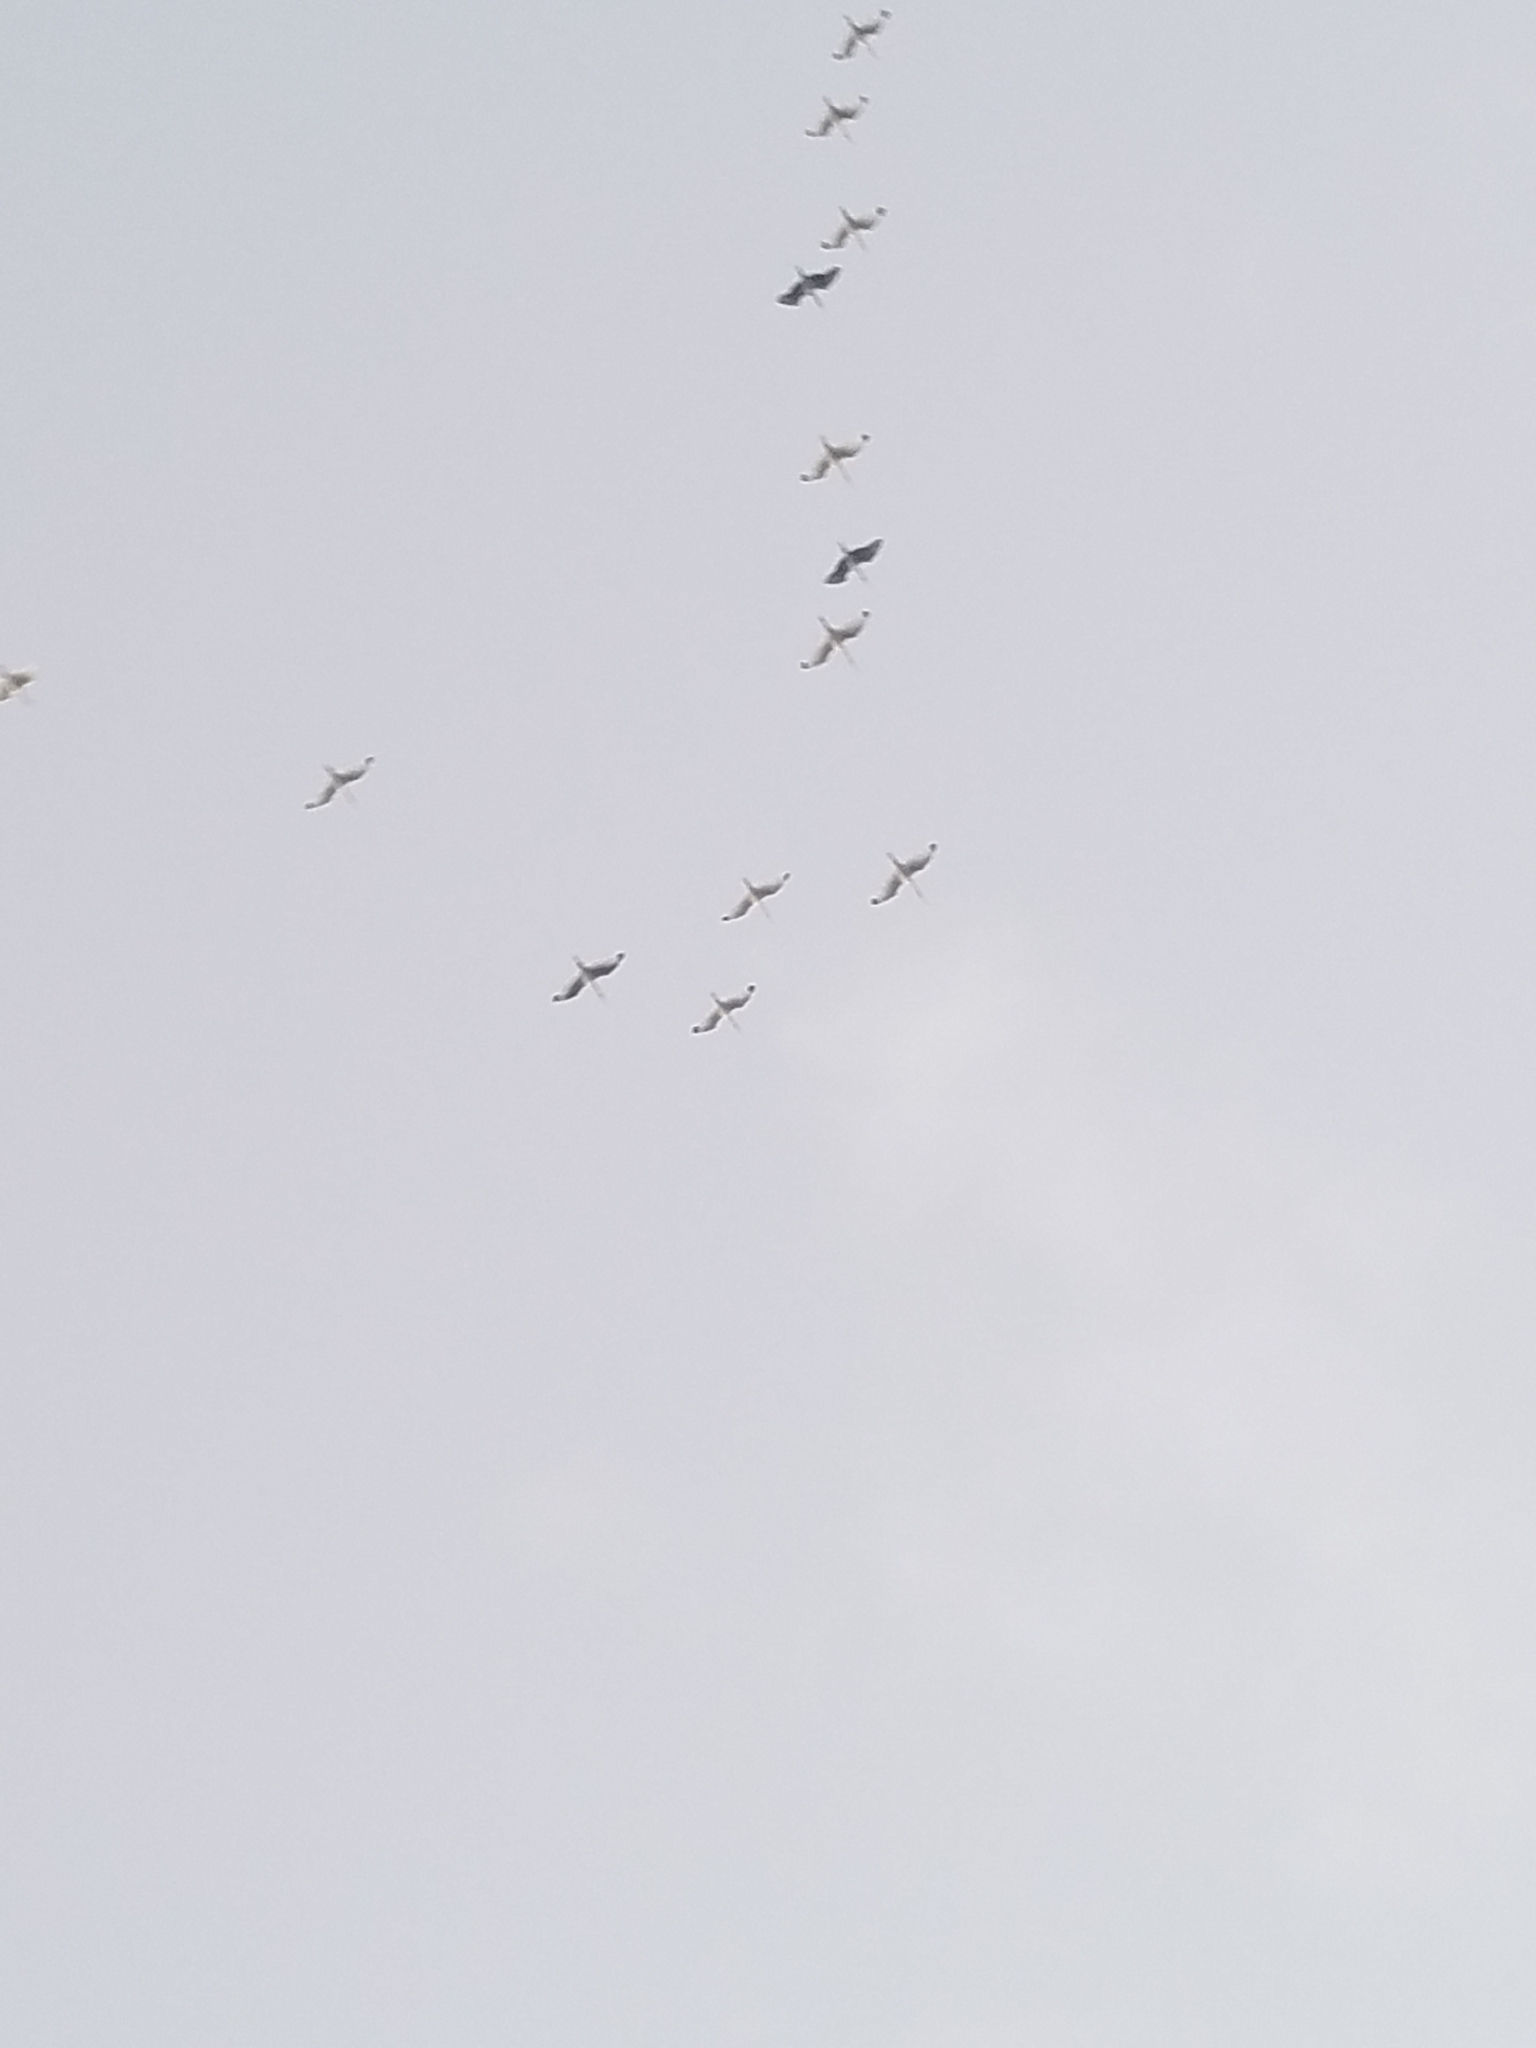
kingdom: Animalia
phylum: Chordata
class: Aves
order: Pelecaniformes
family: Threskiornithidae
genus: Eudocimus
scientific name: Eudocimus albus
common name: White ibis
